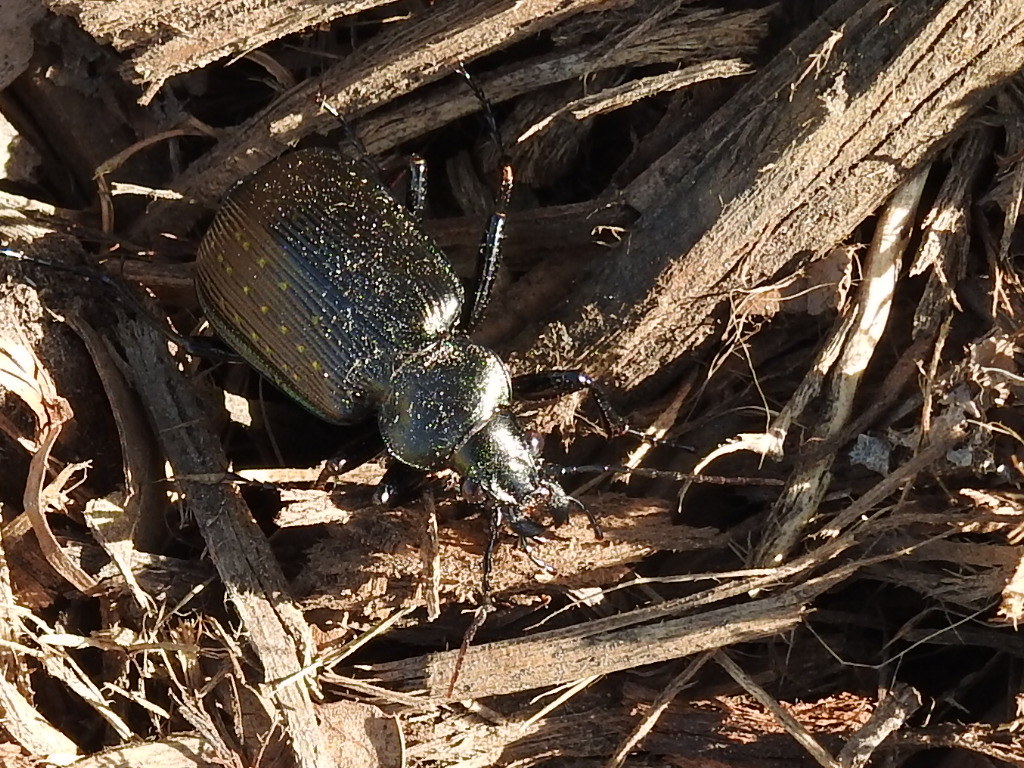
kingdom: Animalia
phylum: Arthropoda
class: Insecta
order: Coleoptera
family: Carabidae
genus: Calosoma
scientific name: Calosoma sayi
